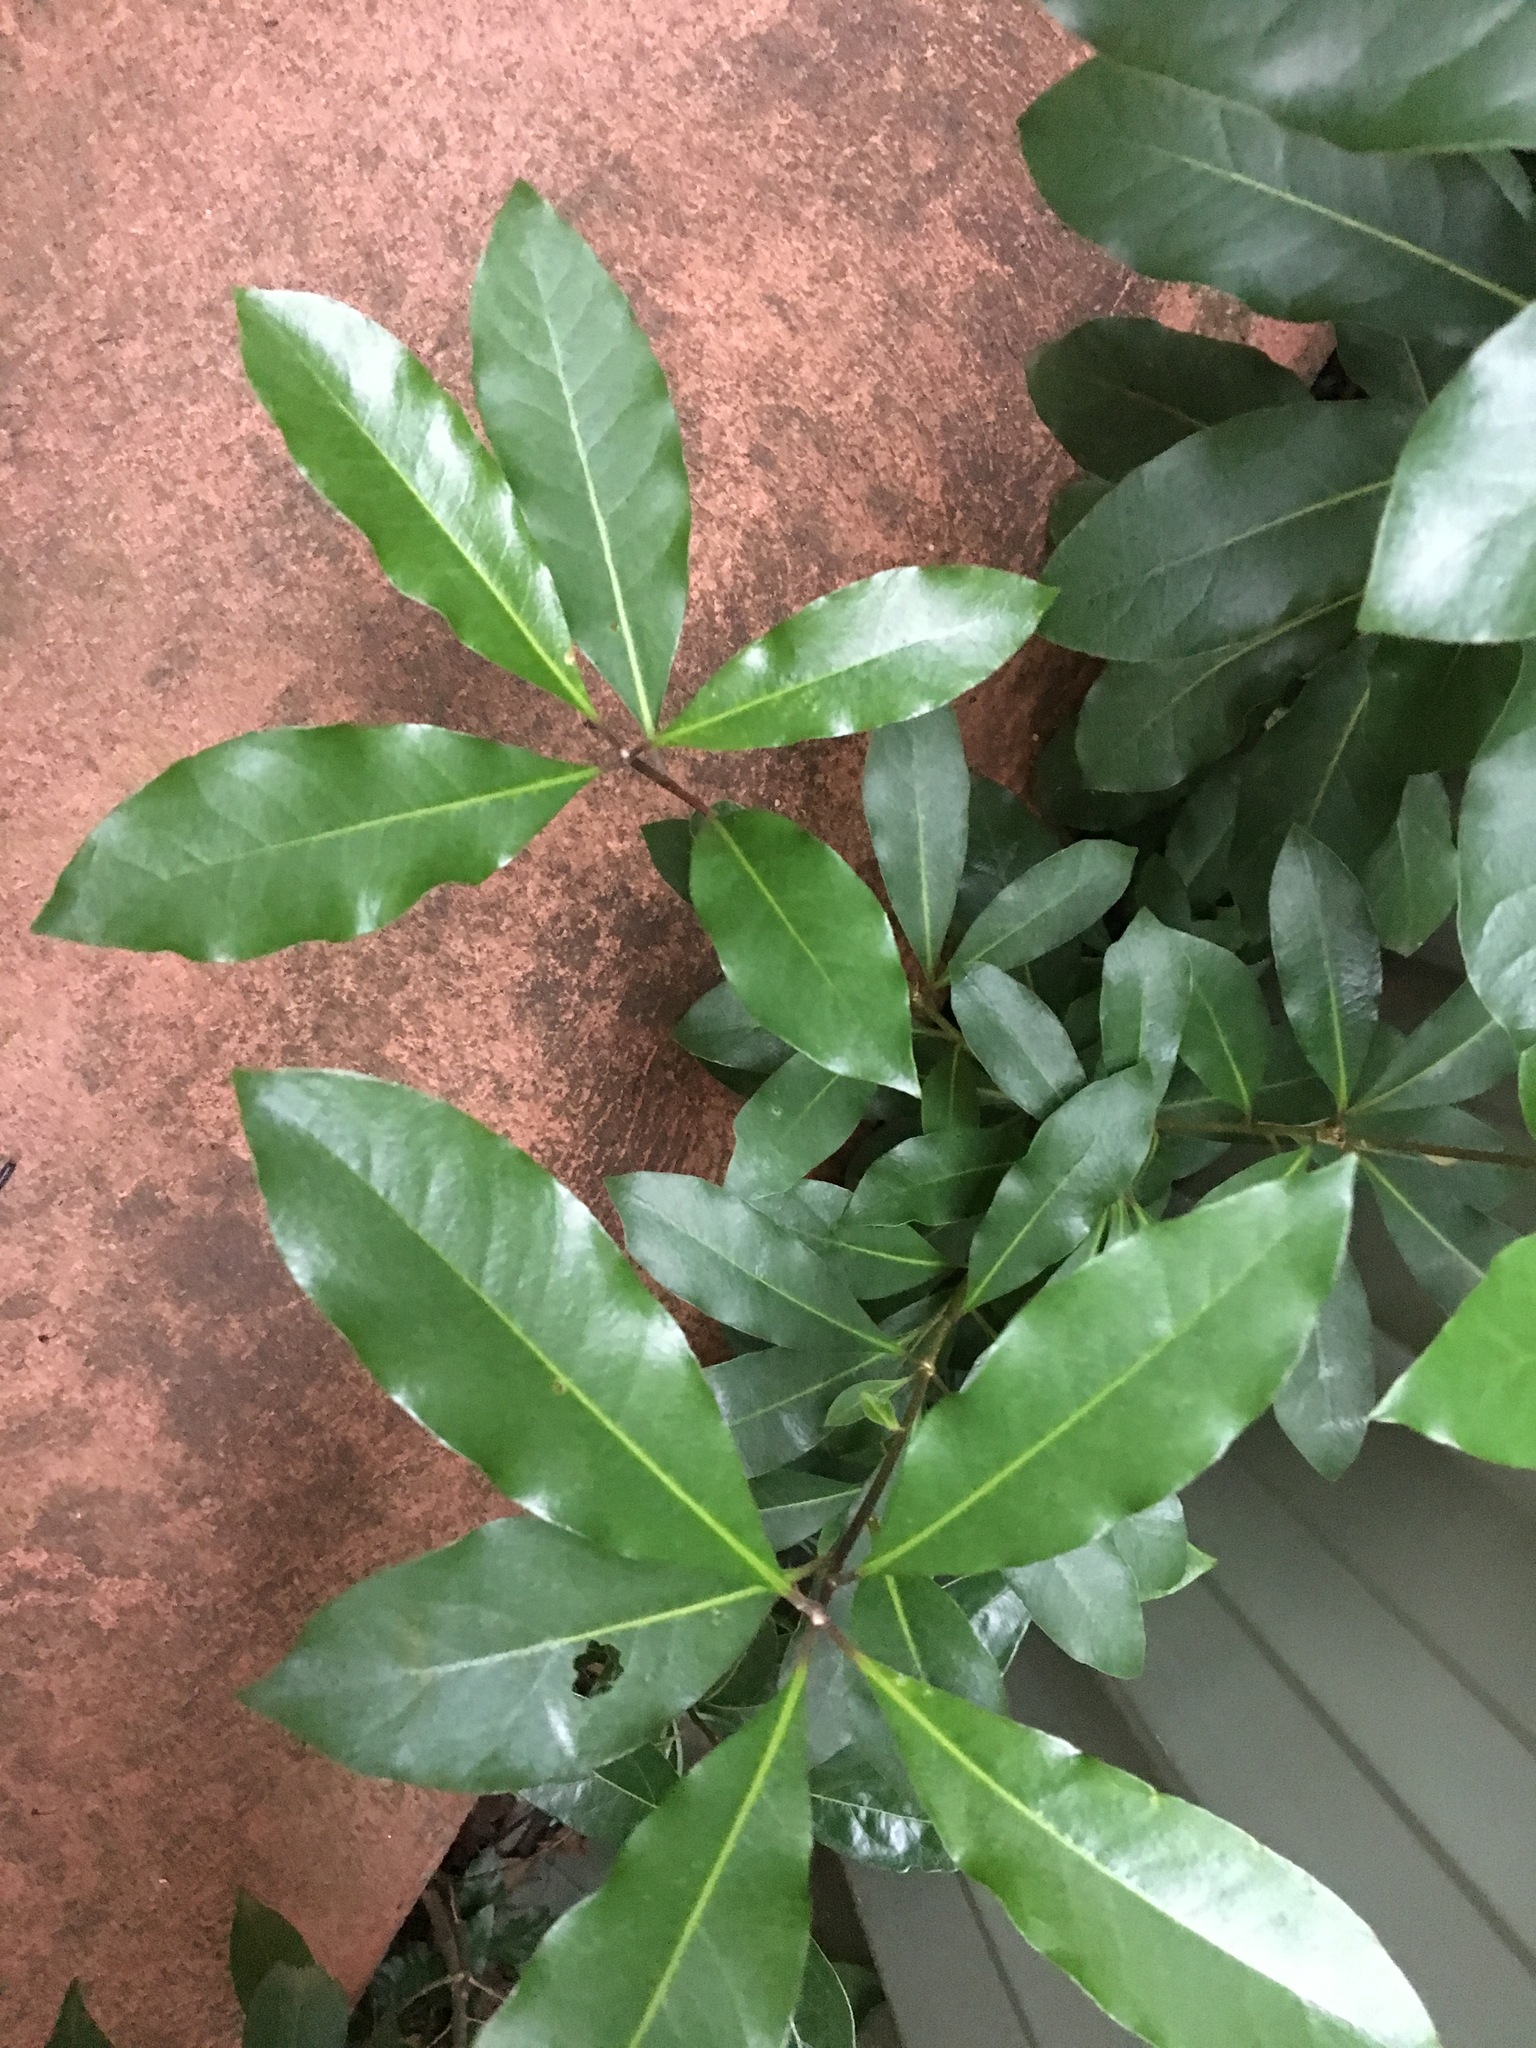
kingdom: Plantae
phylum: Tracheophyta
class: Magnoliopsida
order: Apiales
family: Pittosporaceae
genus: Pittosporum
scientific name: Pittosporum undulatum
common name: Australian cheesewood
